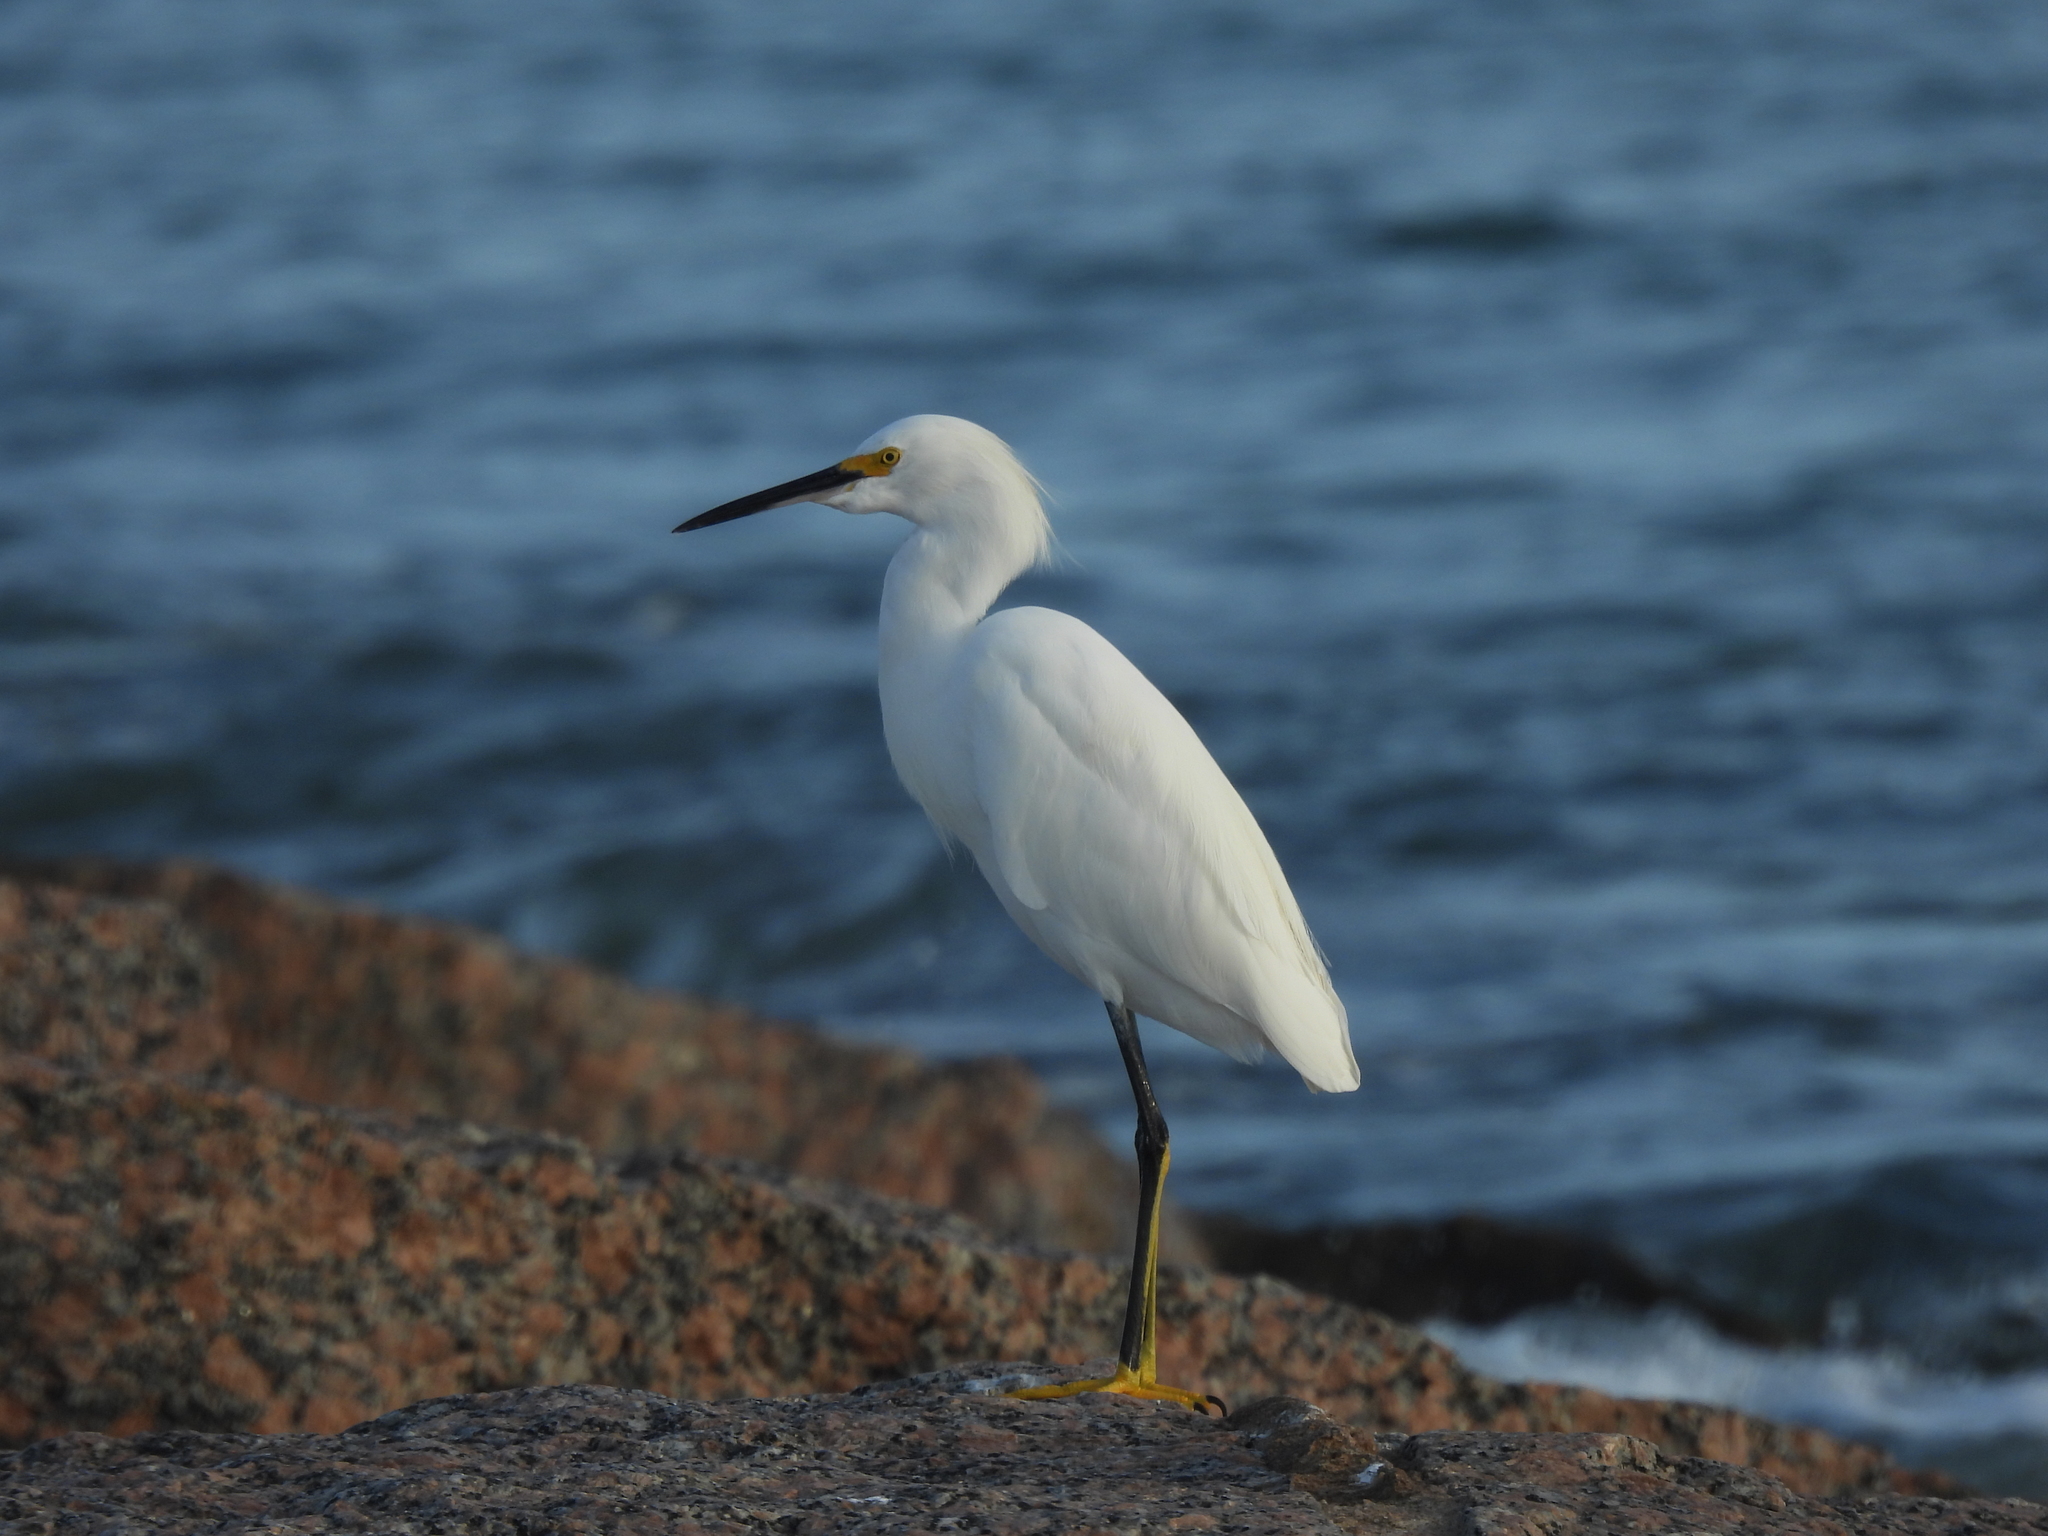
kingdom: Animalia
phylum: Chordata
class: Aves
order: Pelecaniformes
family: Ardeidae
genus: Egretta
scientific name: Egretta thula
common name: Snowy egret
